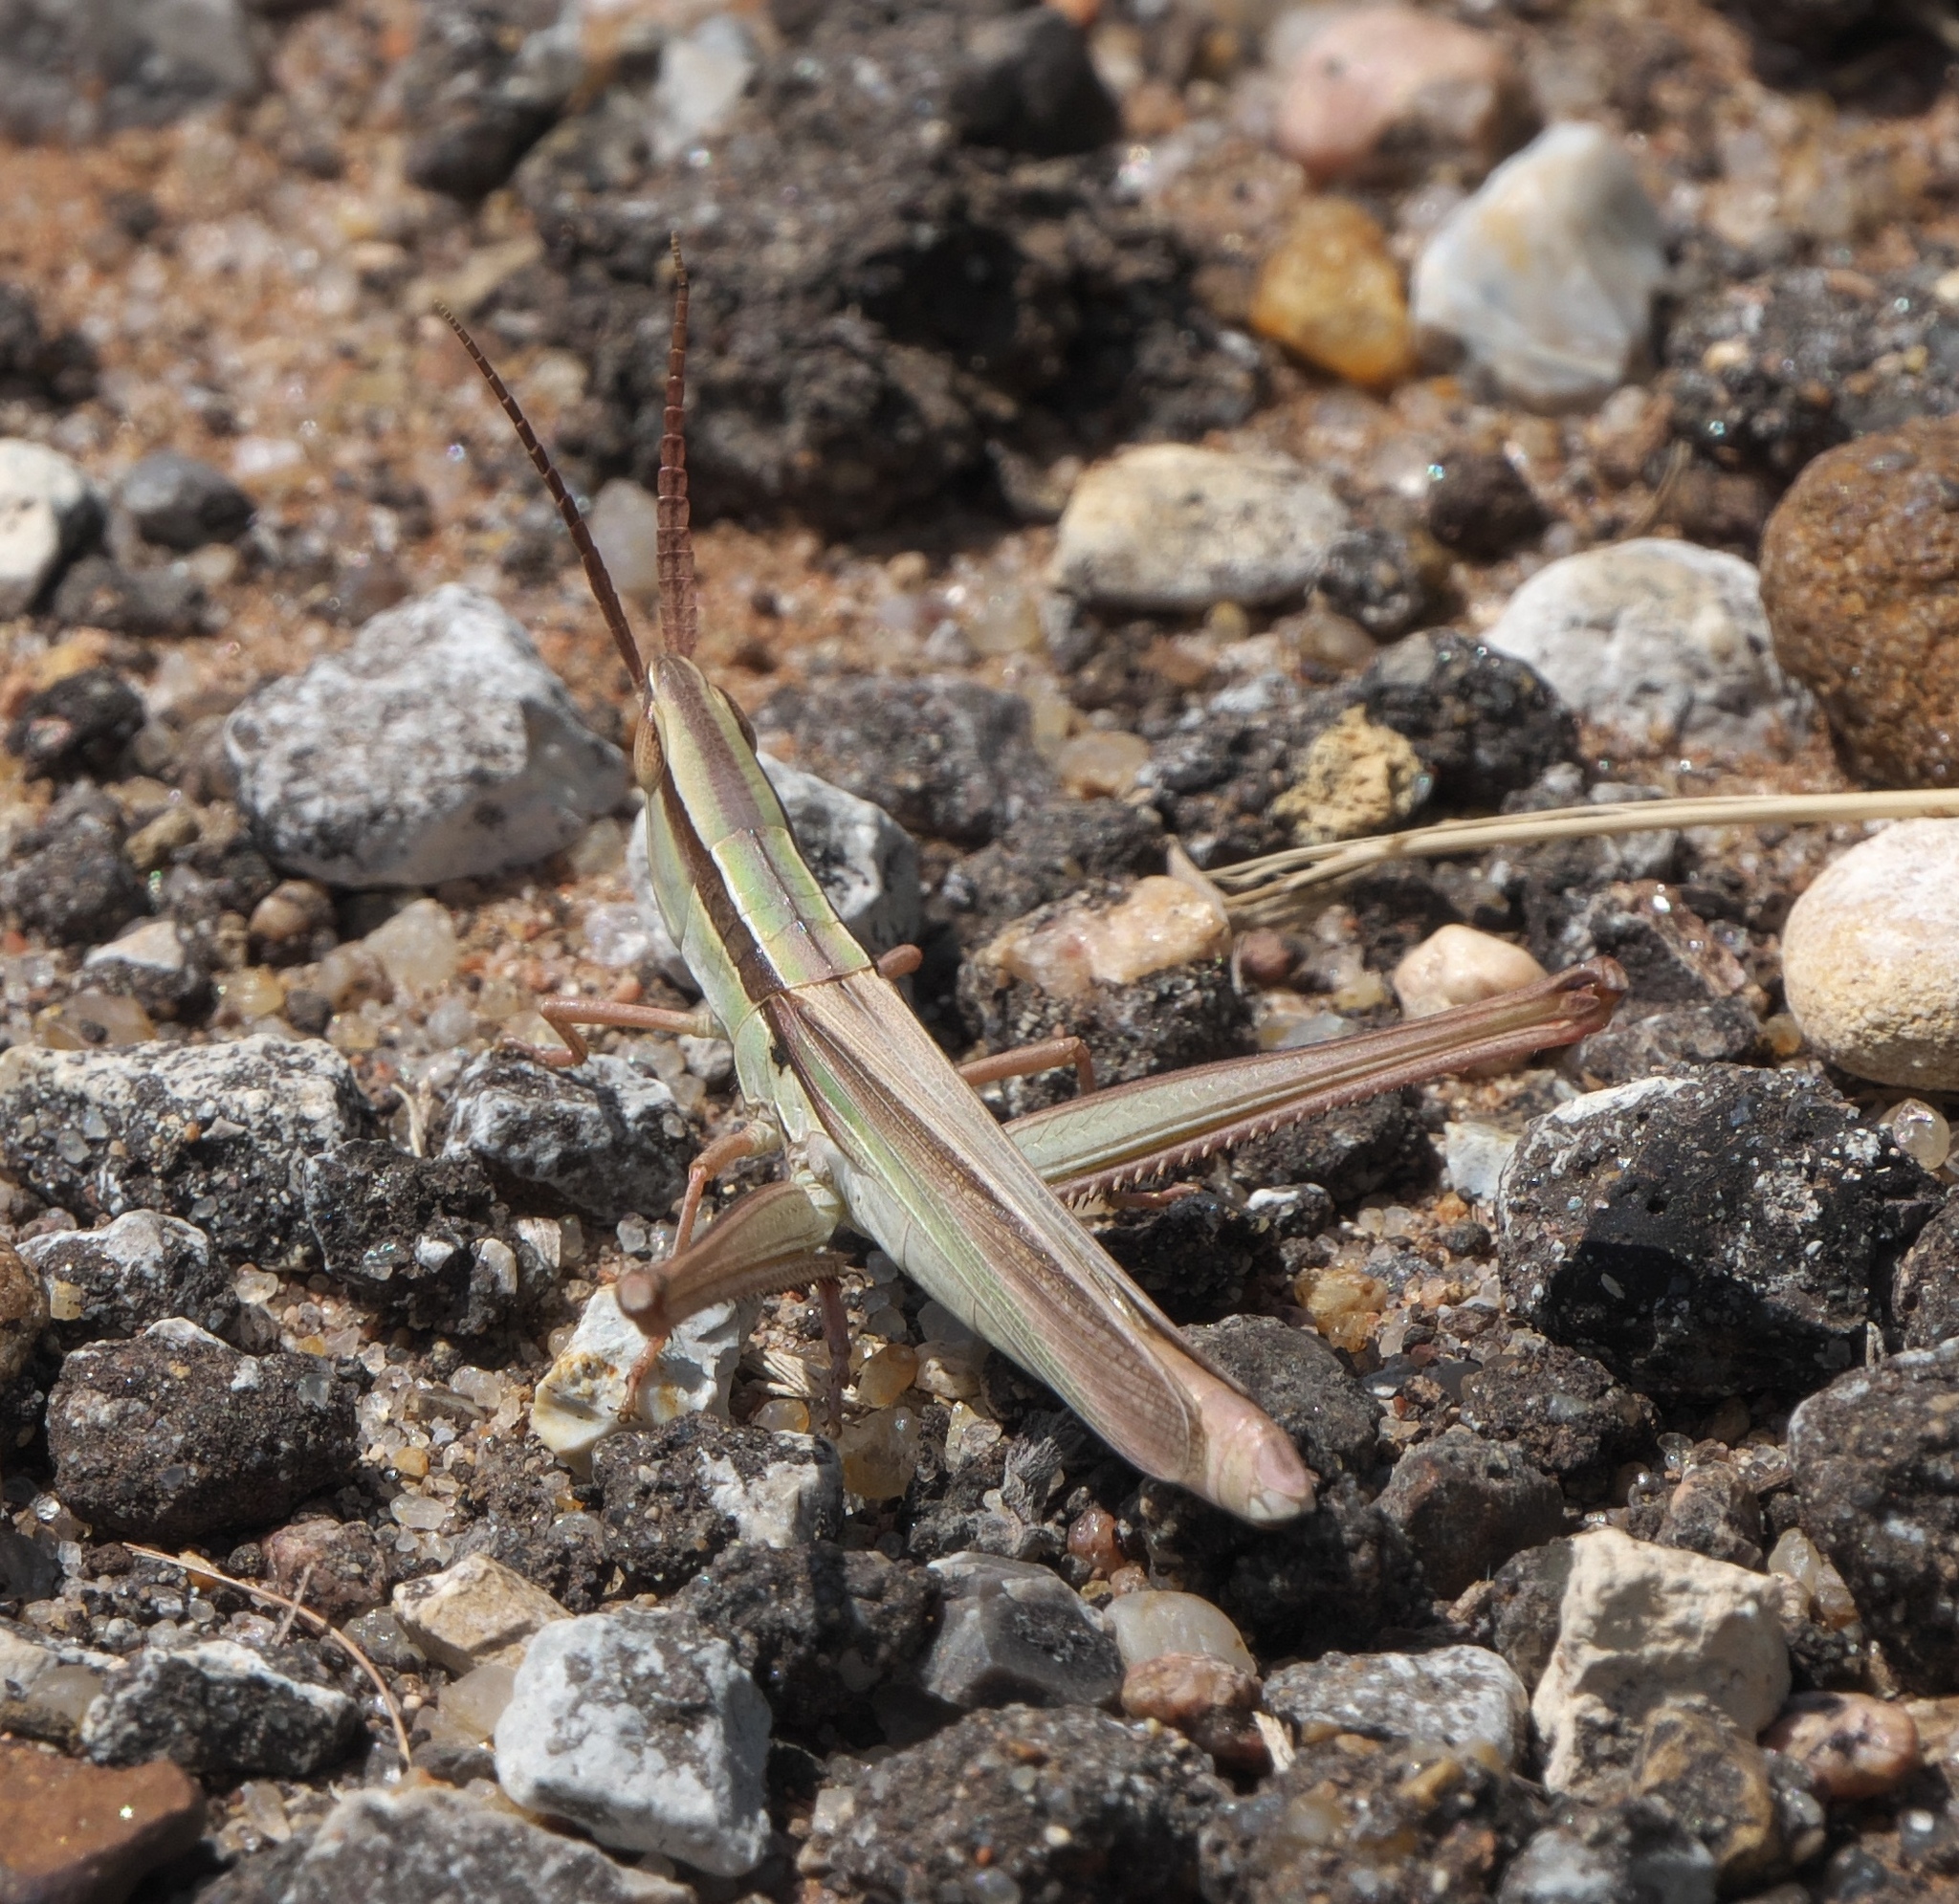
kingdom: Animalia
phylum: Arthropoda
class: Insecta
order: Orthoptera
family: Acrididae
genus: Mermiria
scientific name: Mermiria picta
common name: Lively mermiria grasshopper
